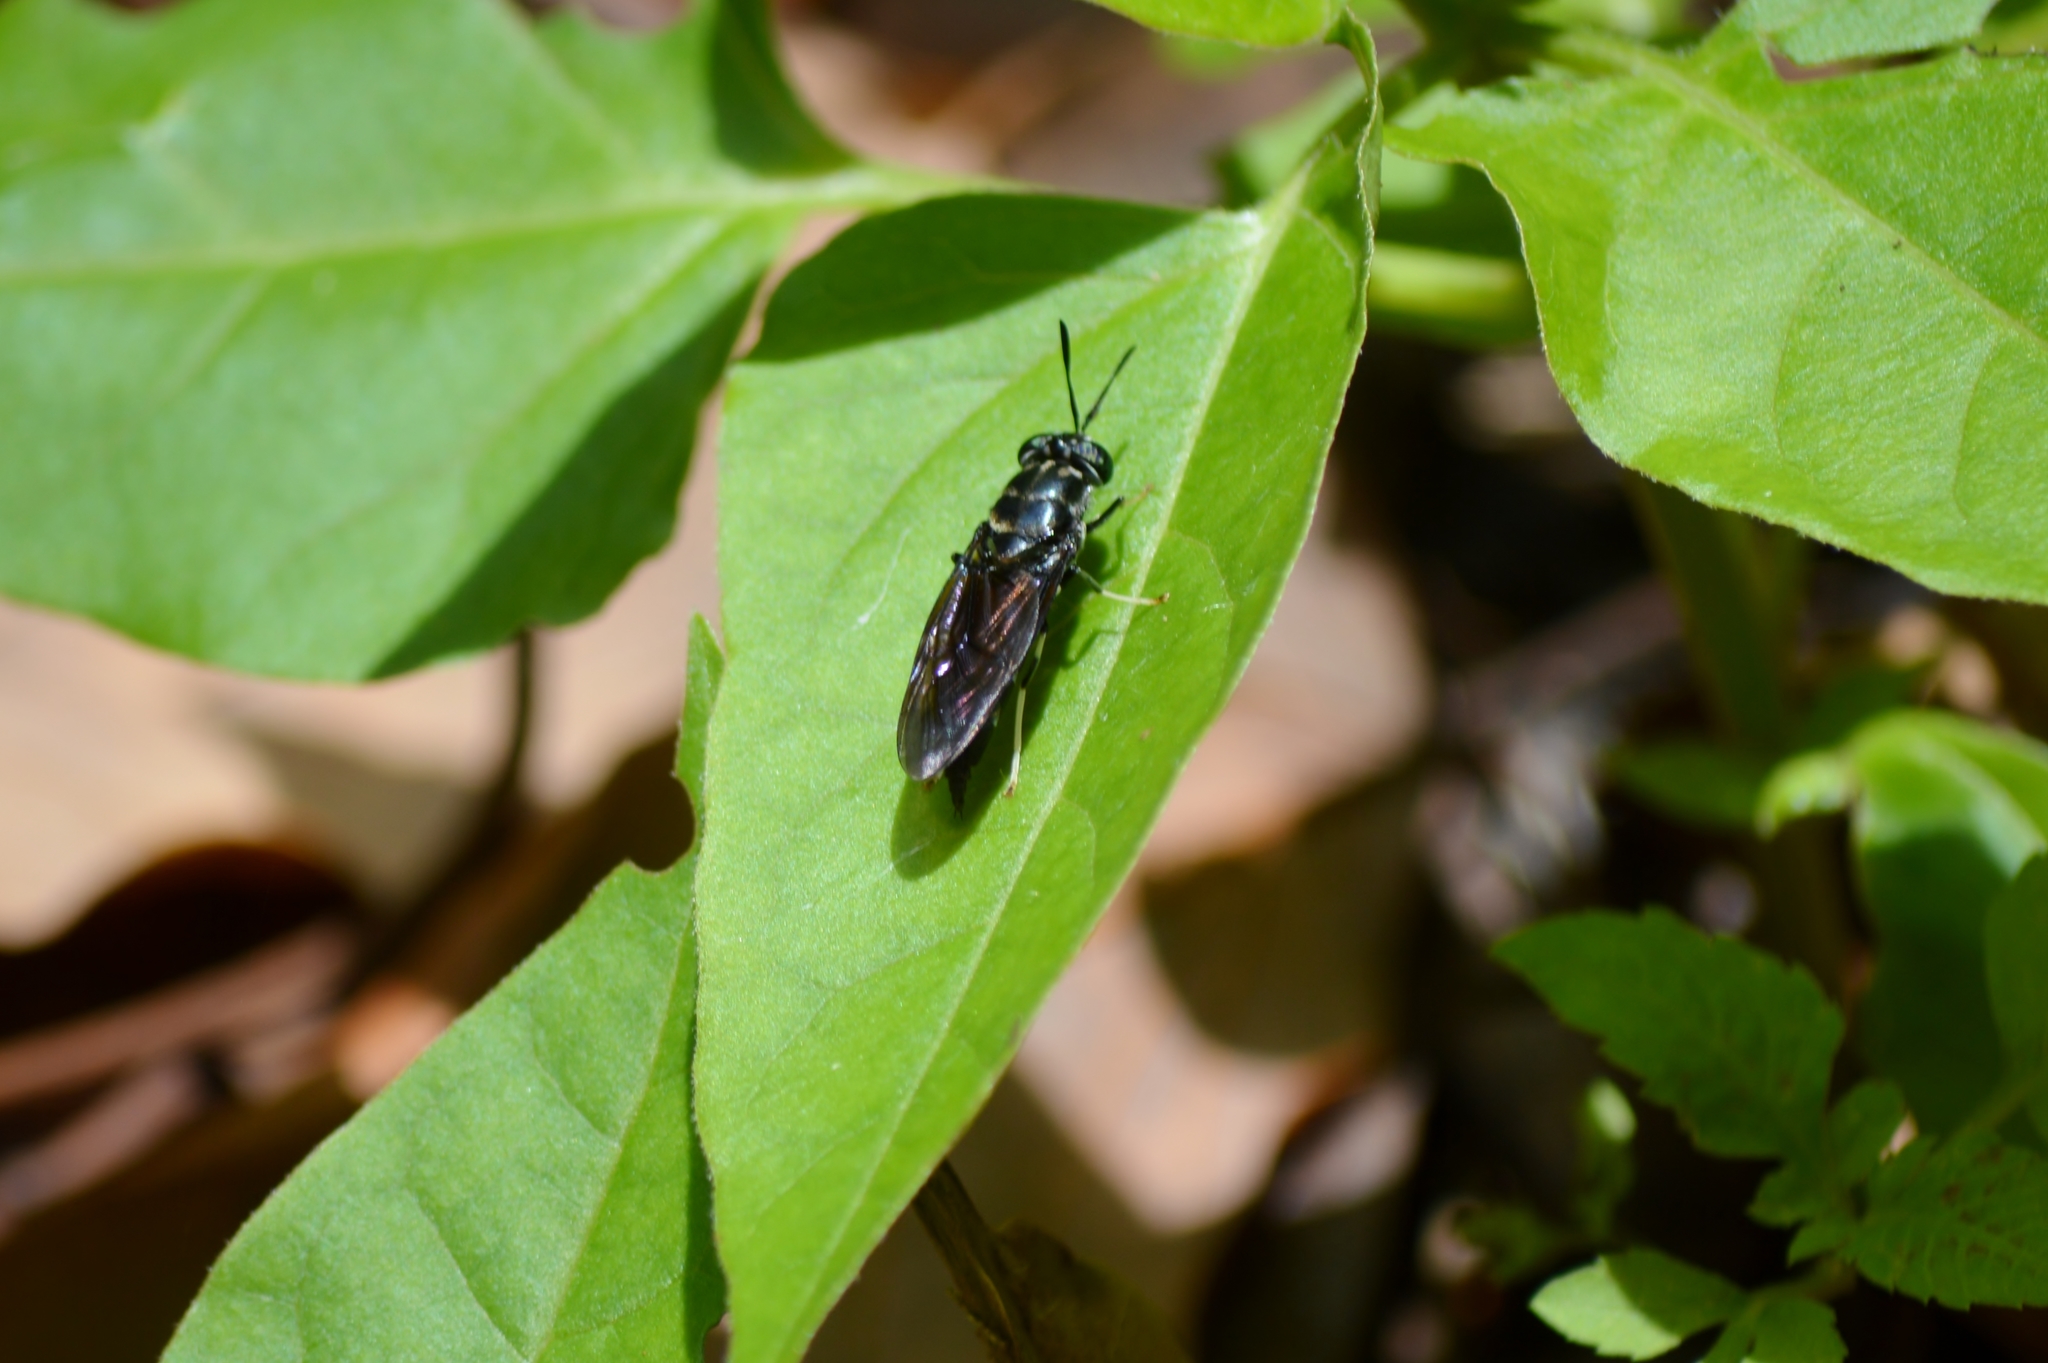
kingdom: Animalia
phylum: Arthropoda
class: Insecta
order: Diptera
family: Stratiomyidae
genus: Hermetia
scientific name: Hermetia illucens
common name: Black soldier fly
